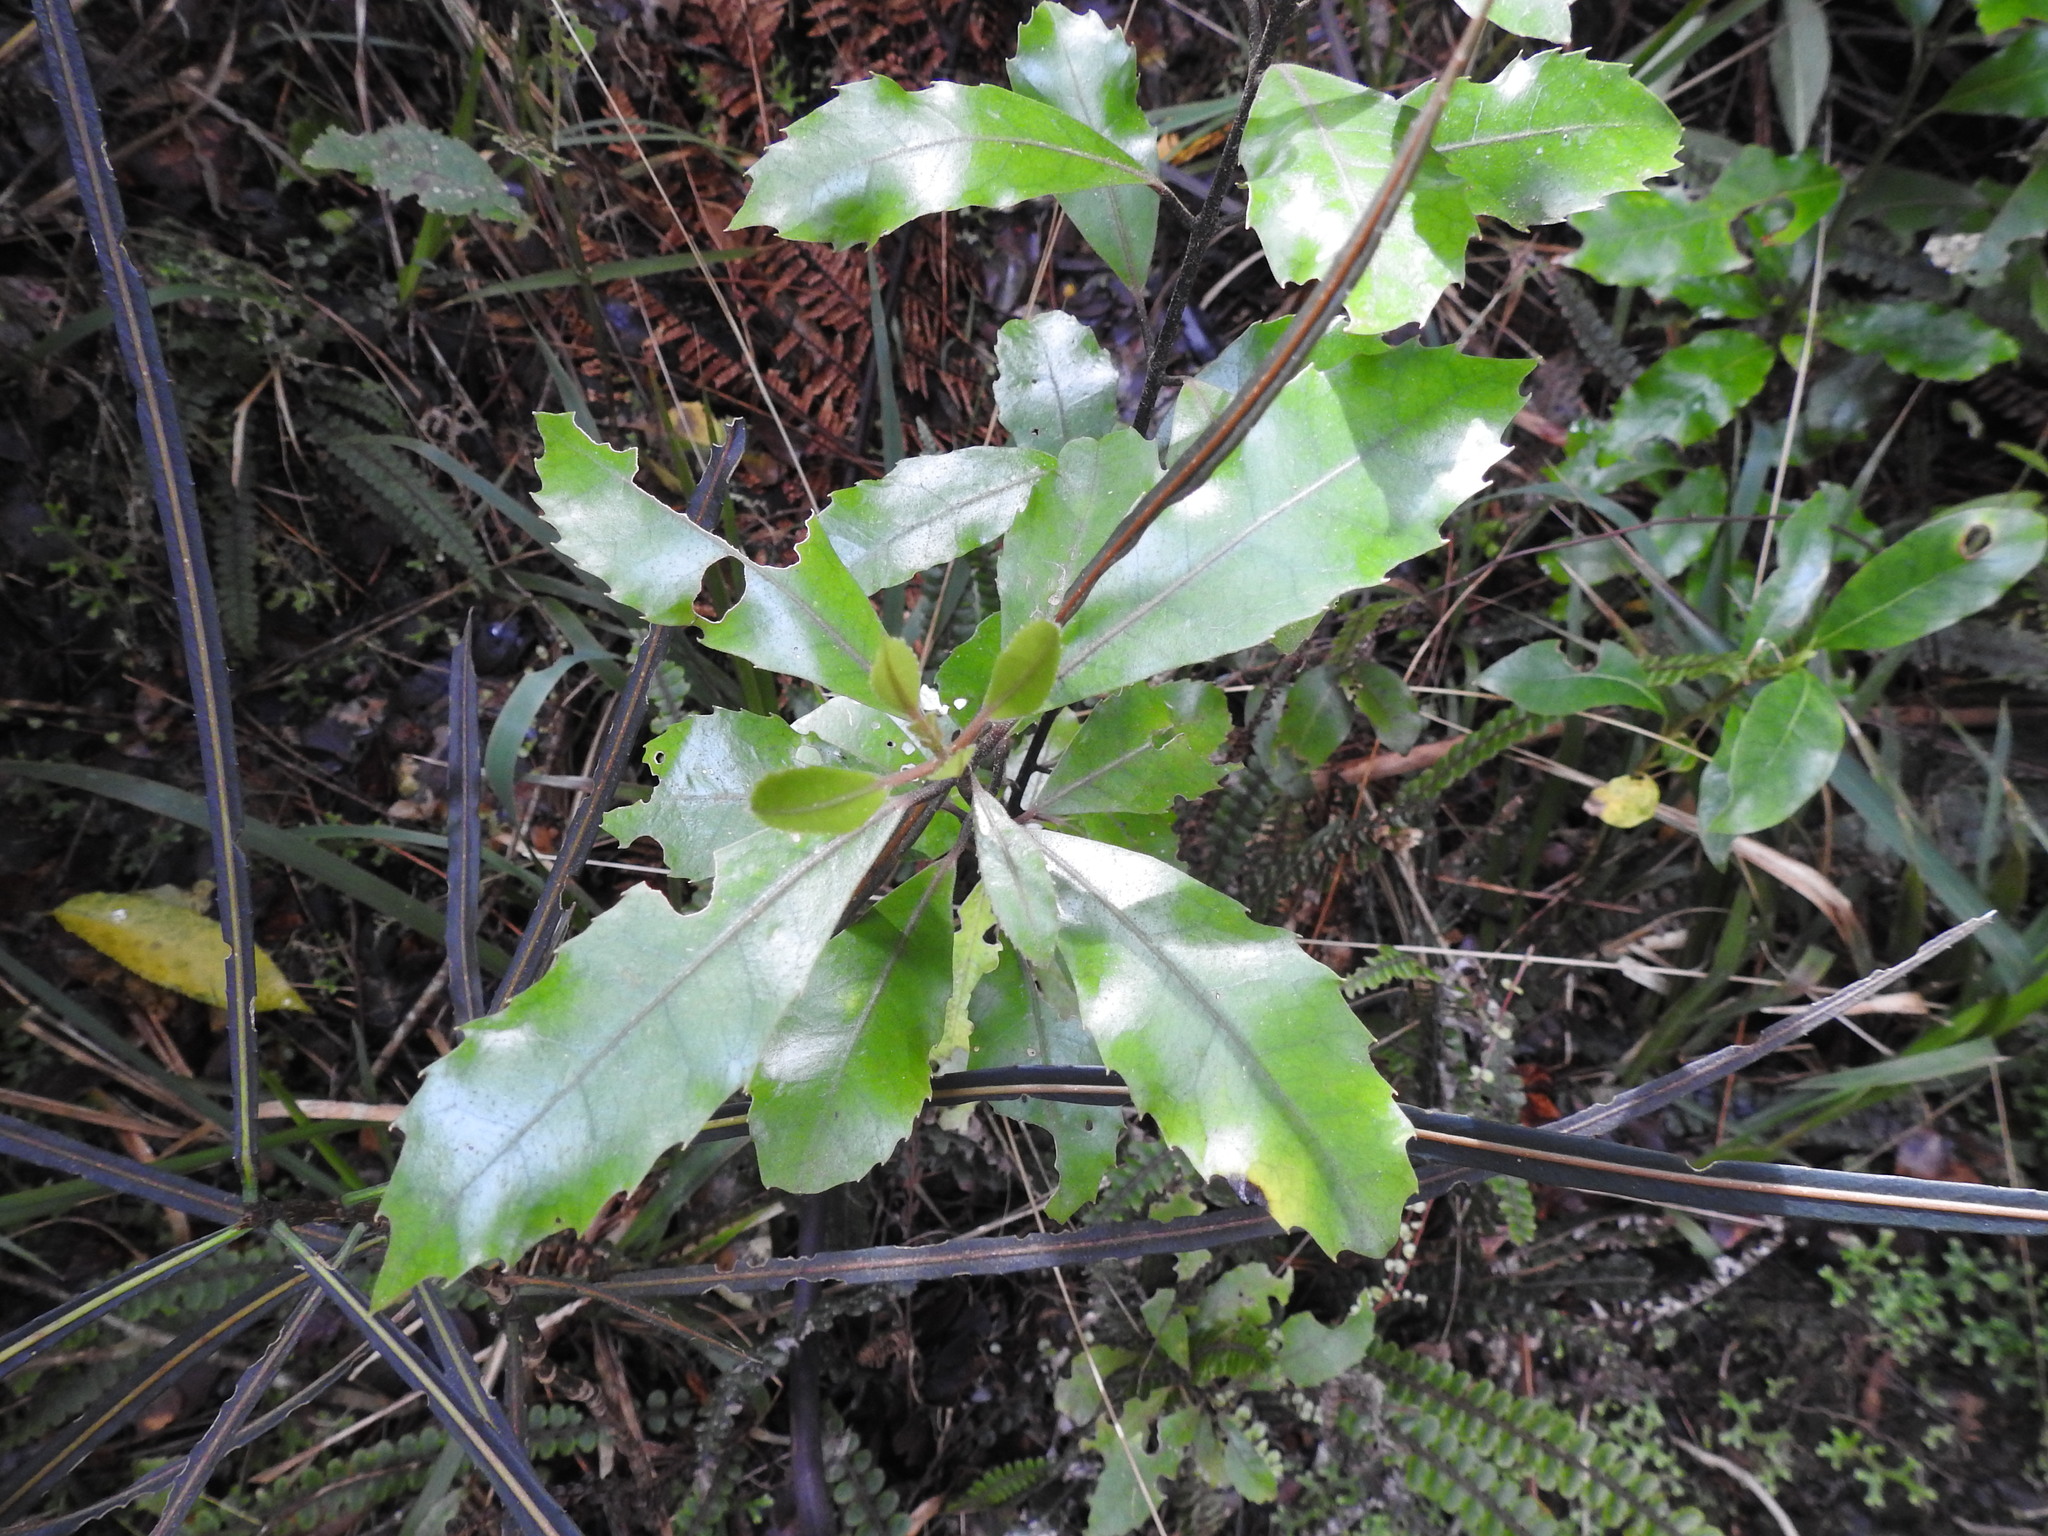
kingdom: Plantae
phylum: Tracheophyta
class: Magnoliopsida
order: Laurales
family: Monimiaceae
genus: Hedycarya
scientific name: Hedycarya arborea
